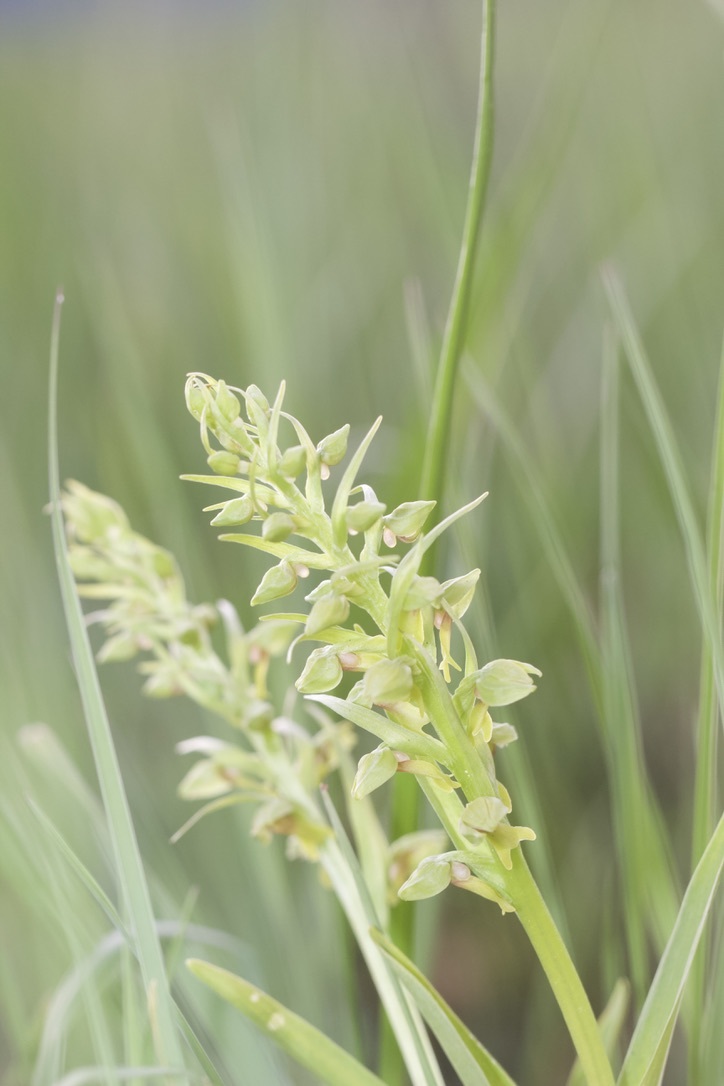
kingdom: Plantae
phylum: Tracheophyta
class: Liliopsida
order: Asparagales
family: Orchidaceae
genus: Dactylorhiza
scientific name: Dactylorhiza viridis
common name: Longbract frog orchid
